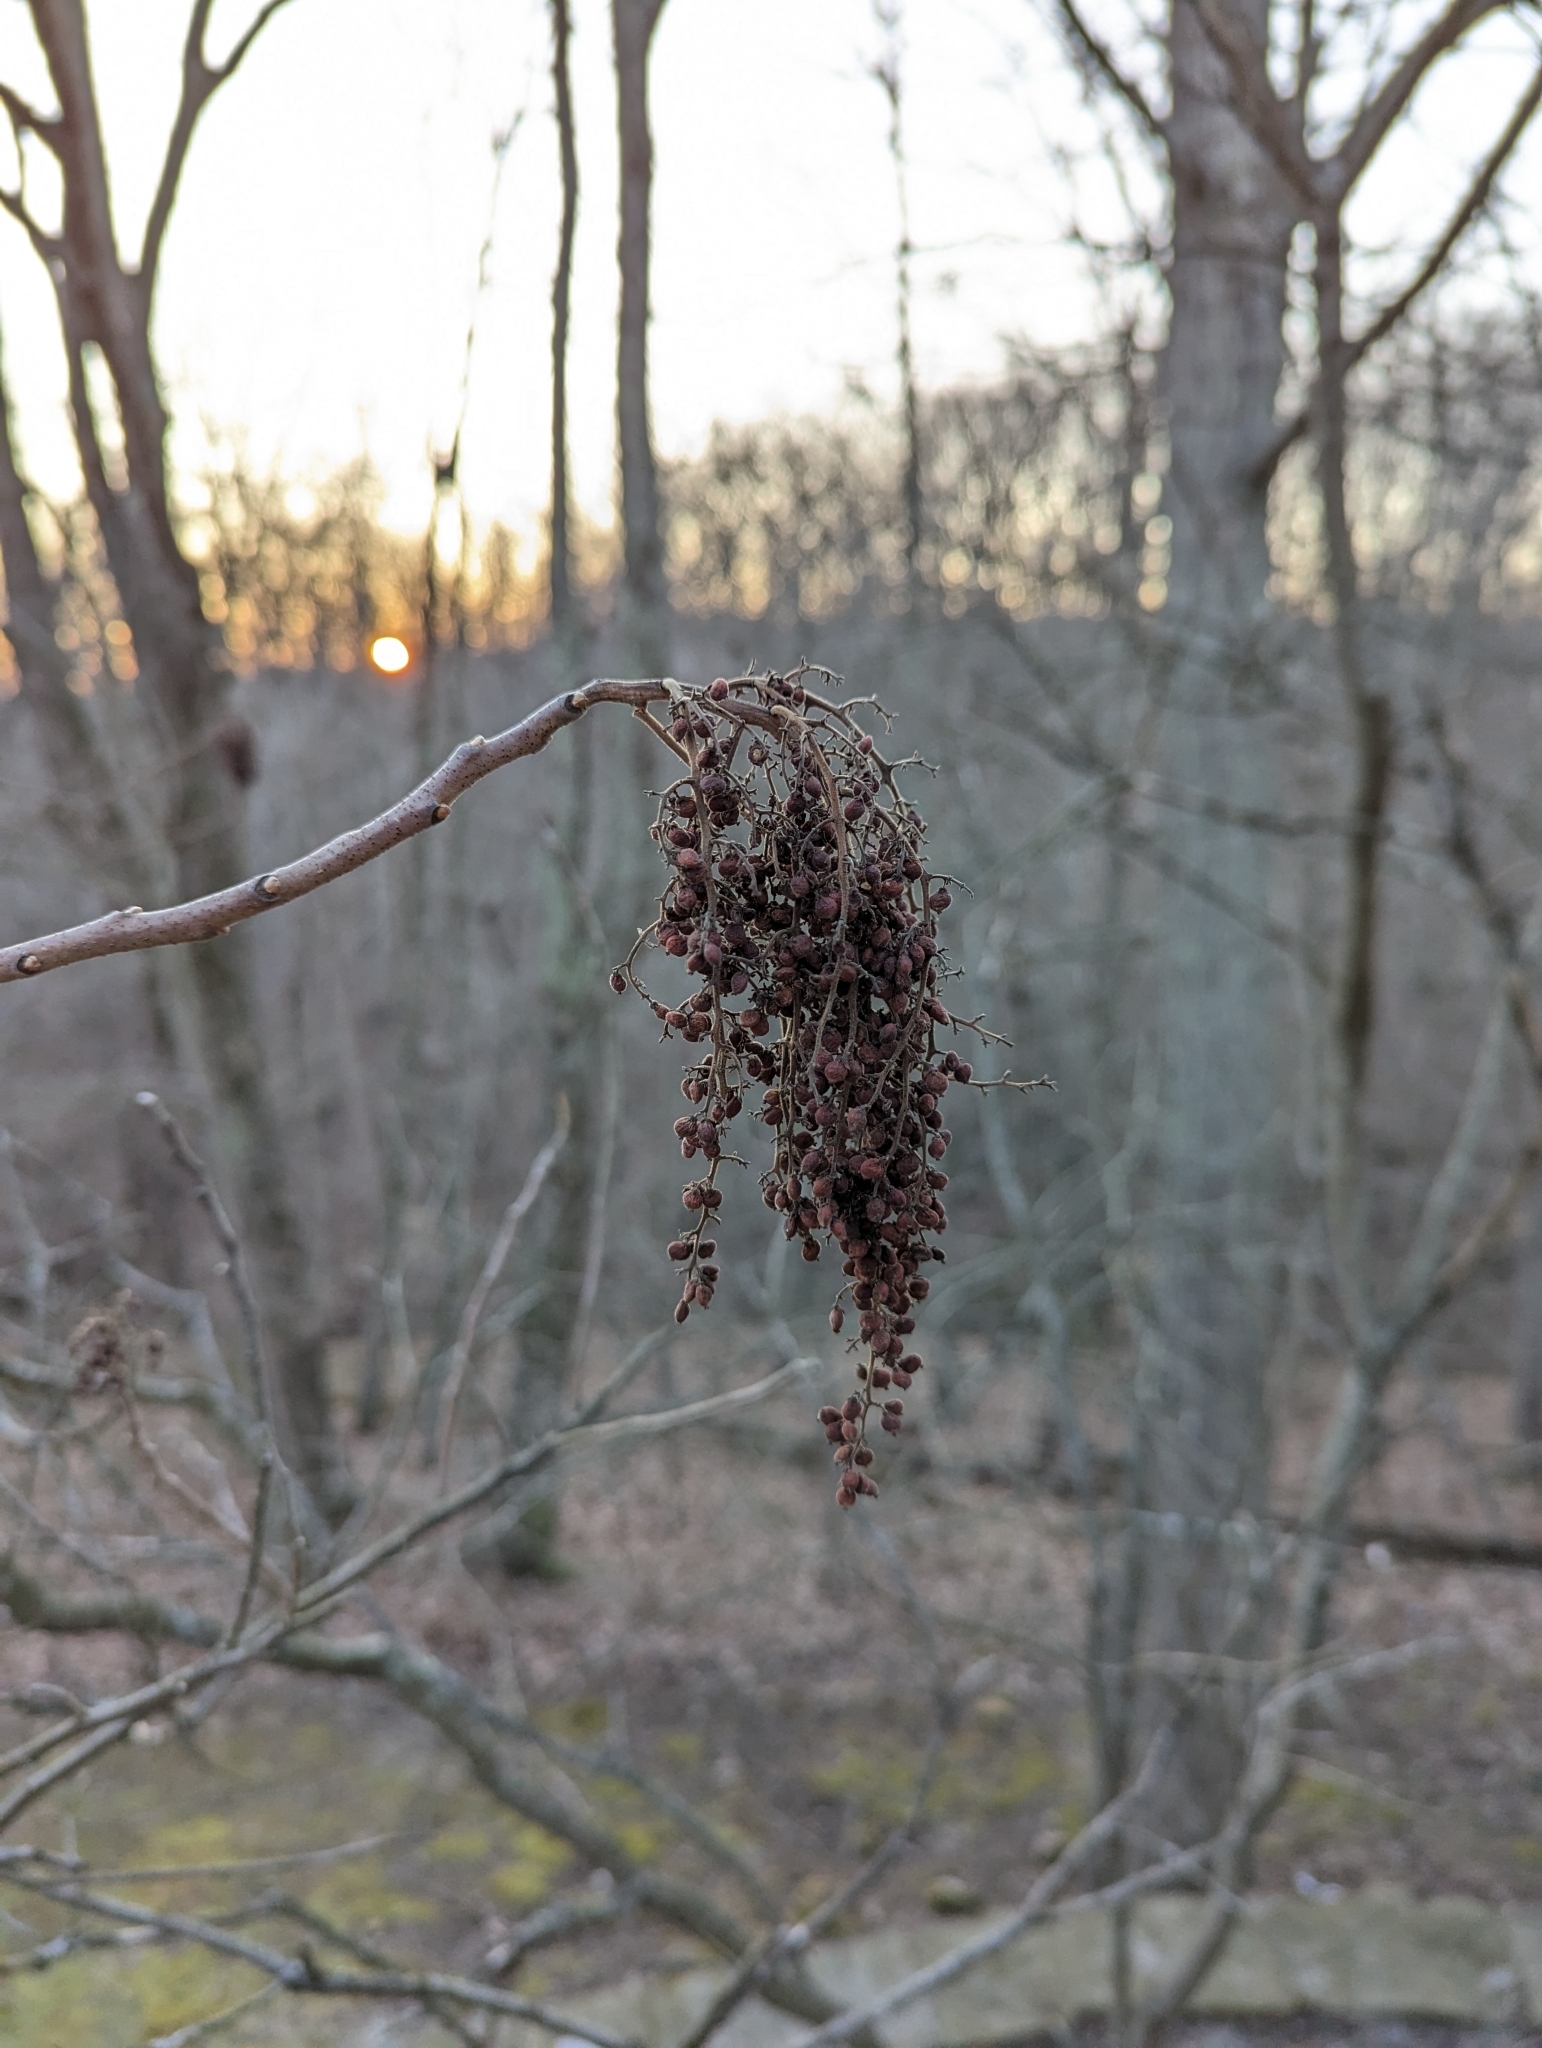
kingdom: Plantae
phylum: Tracheophyta
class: Magnoliopsida
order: Sapindales
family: Anacardiaceae
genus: Rhus
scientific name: Rhus copallina
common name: Shining sumac
